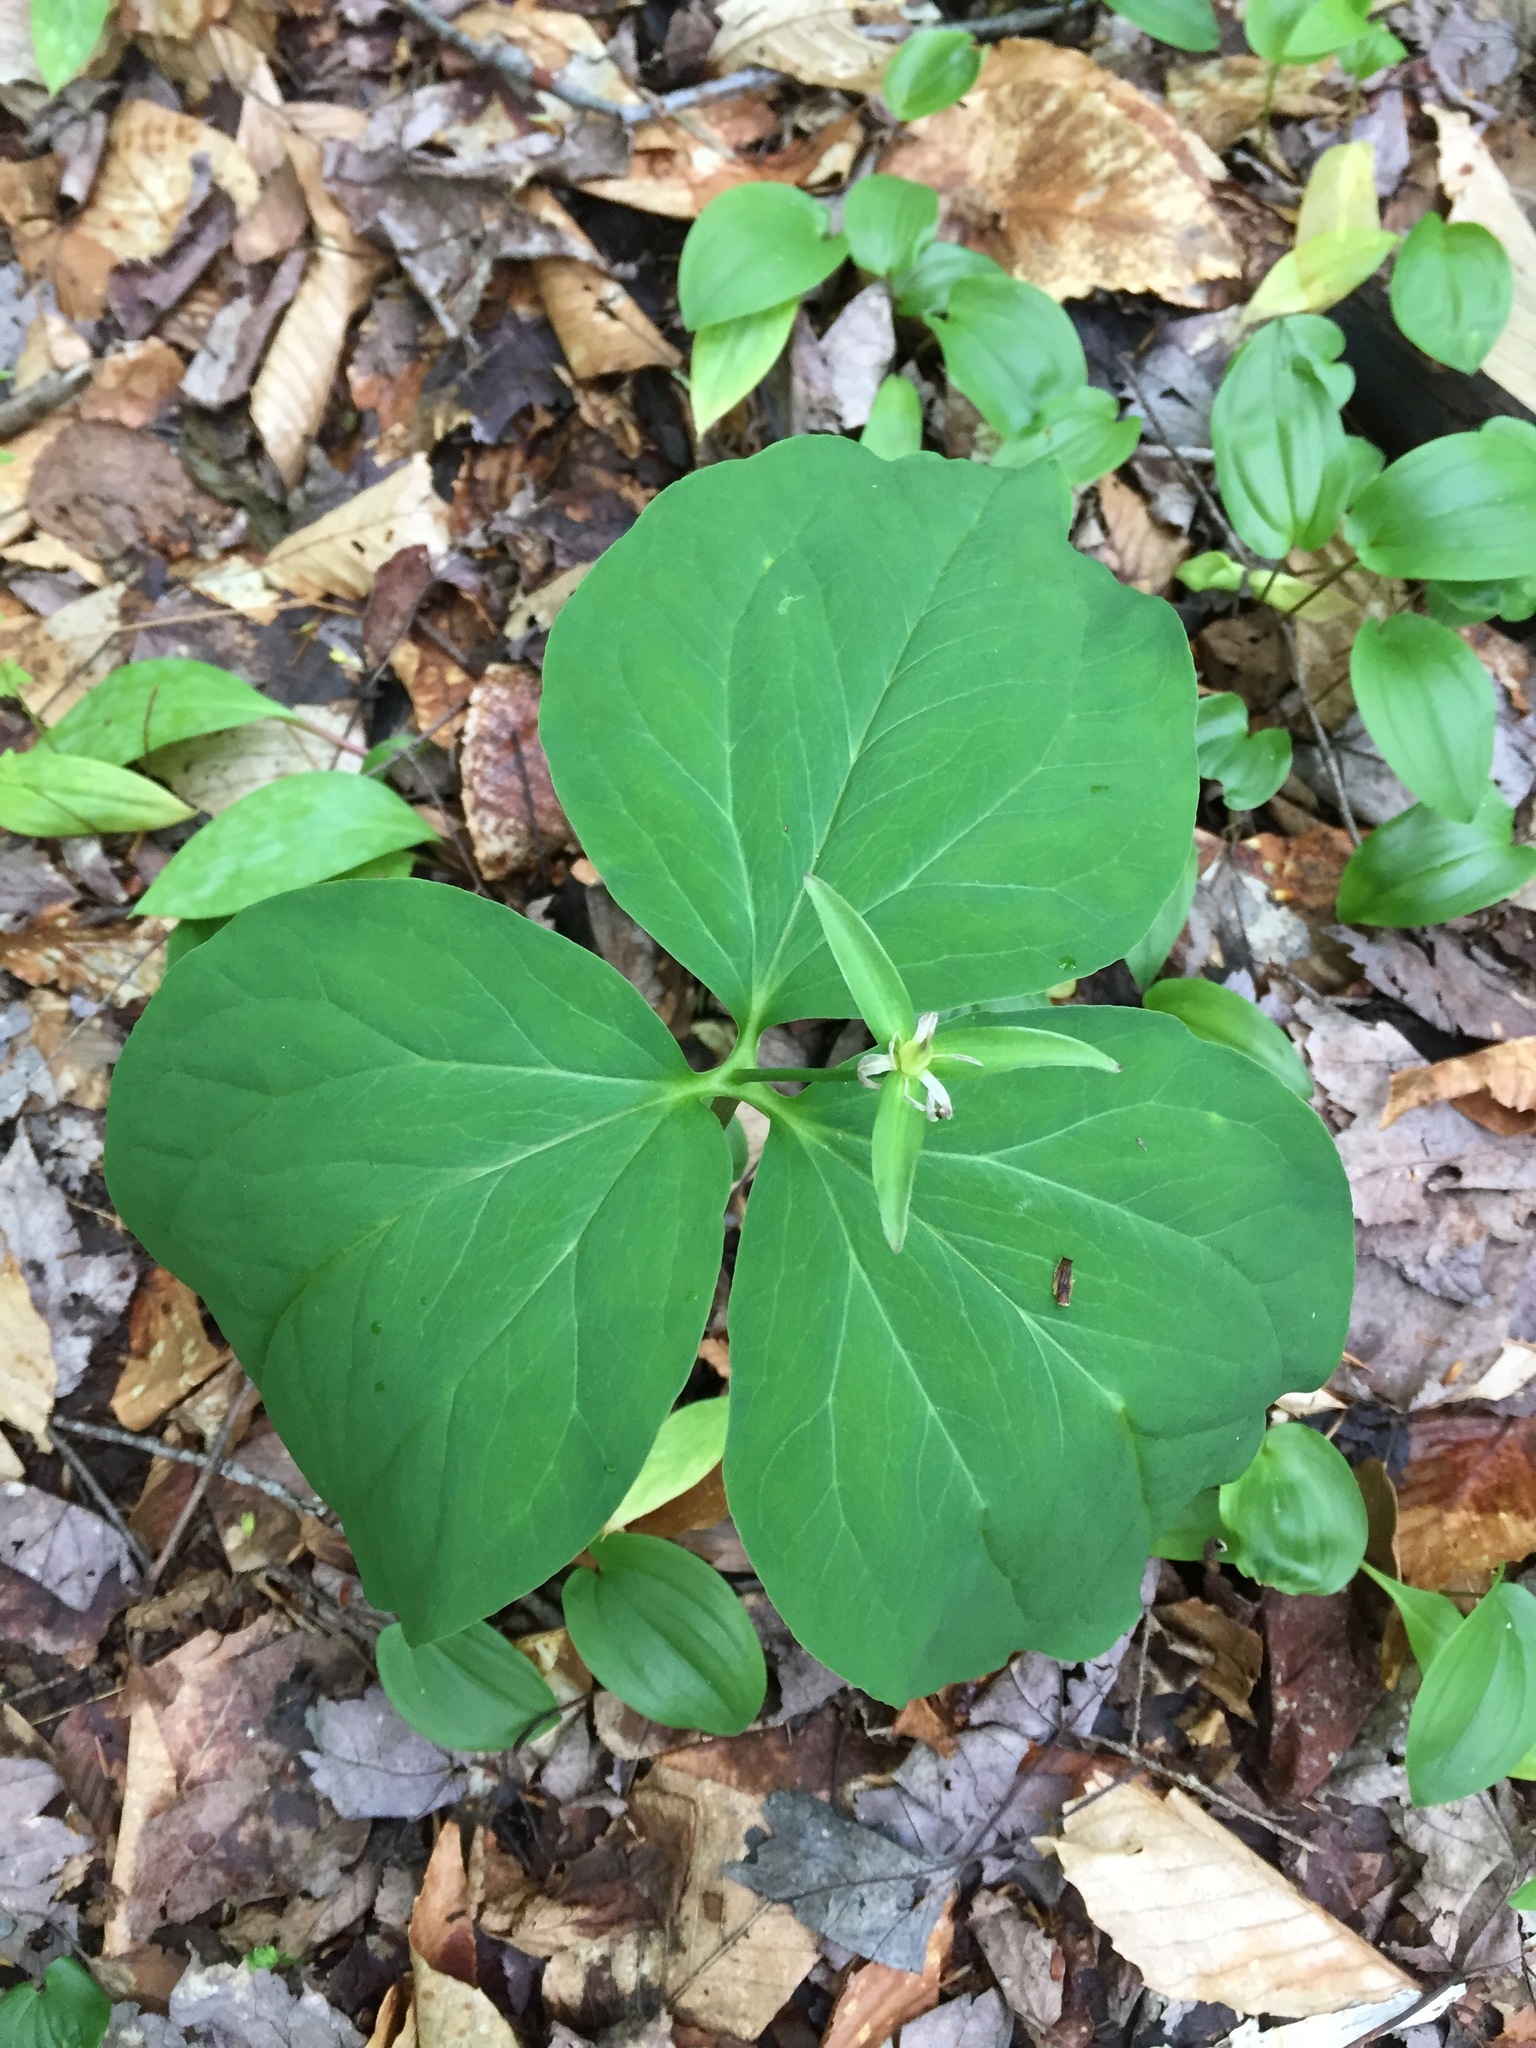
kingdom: Plantae
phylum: Tracheophyta
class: Liliopsida
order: Liliales
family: Melanthiaceae
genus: Trillium
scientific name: Trillium undulatum
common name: Paint trillium
